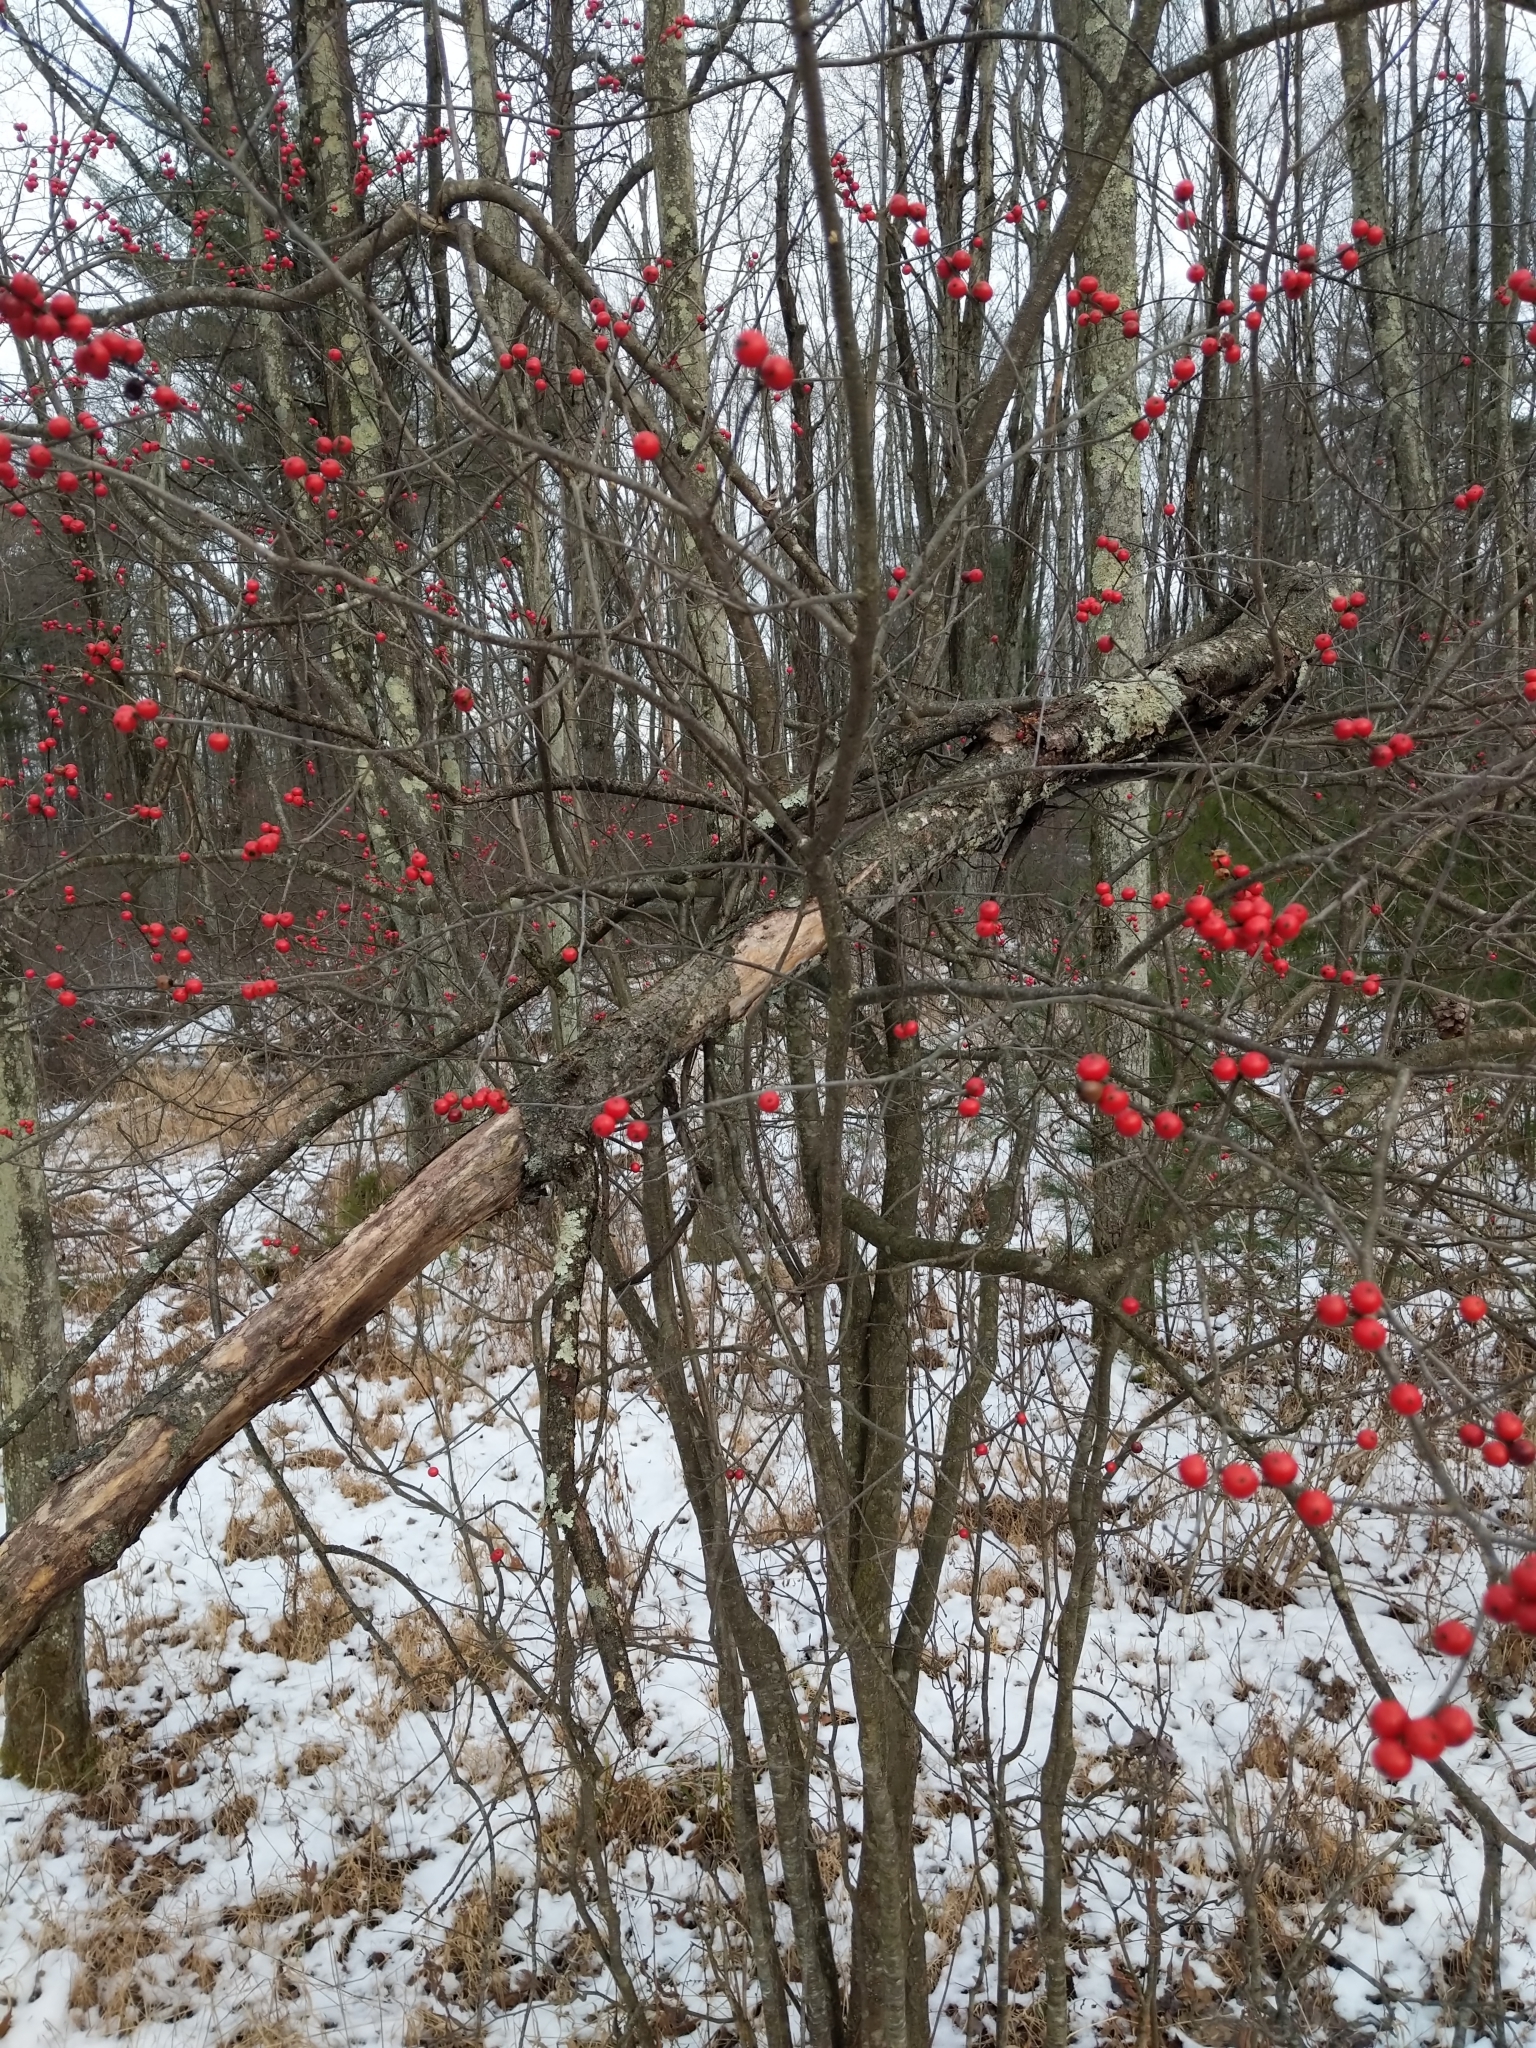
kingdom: Plantae
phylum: Tracheophyta
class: Magnoliopsida
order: Aquifoliales
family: Aquifoliaceae
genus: Ilex
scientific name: Ilex verticillata
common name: Virginia winterberry
